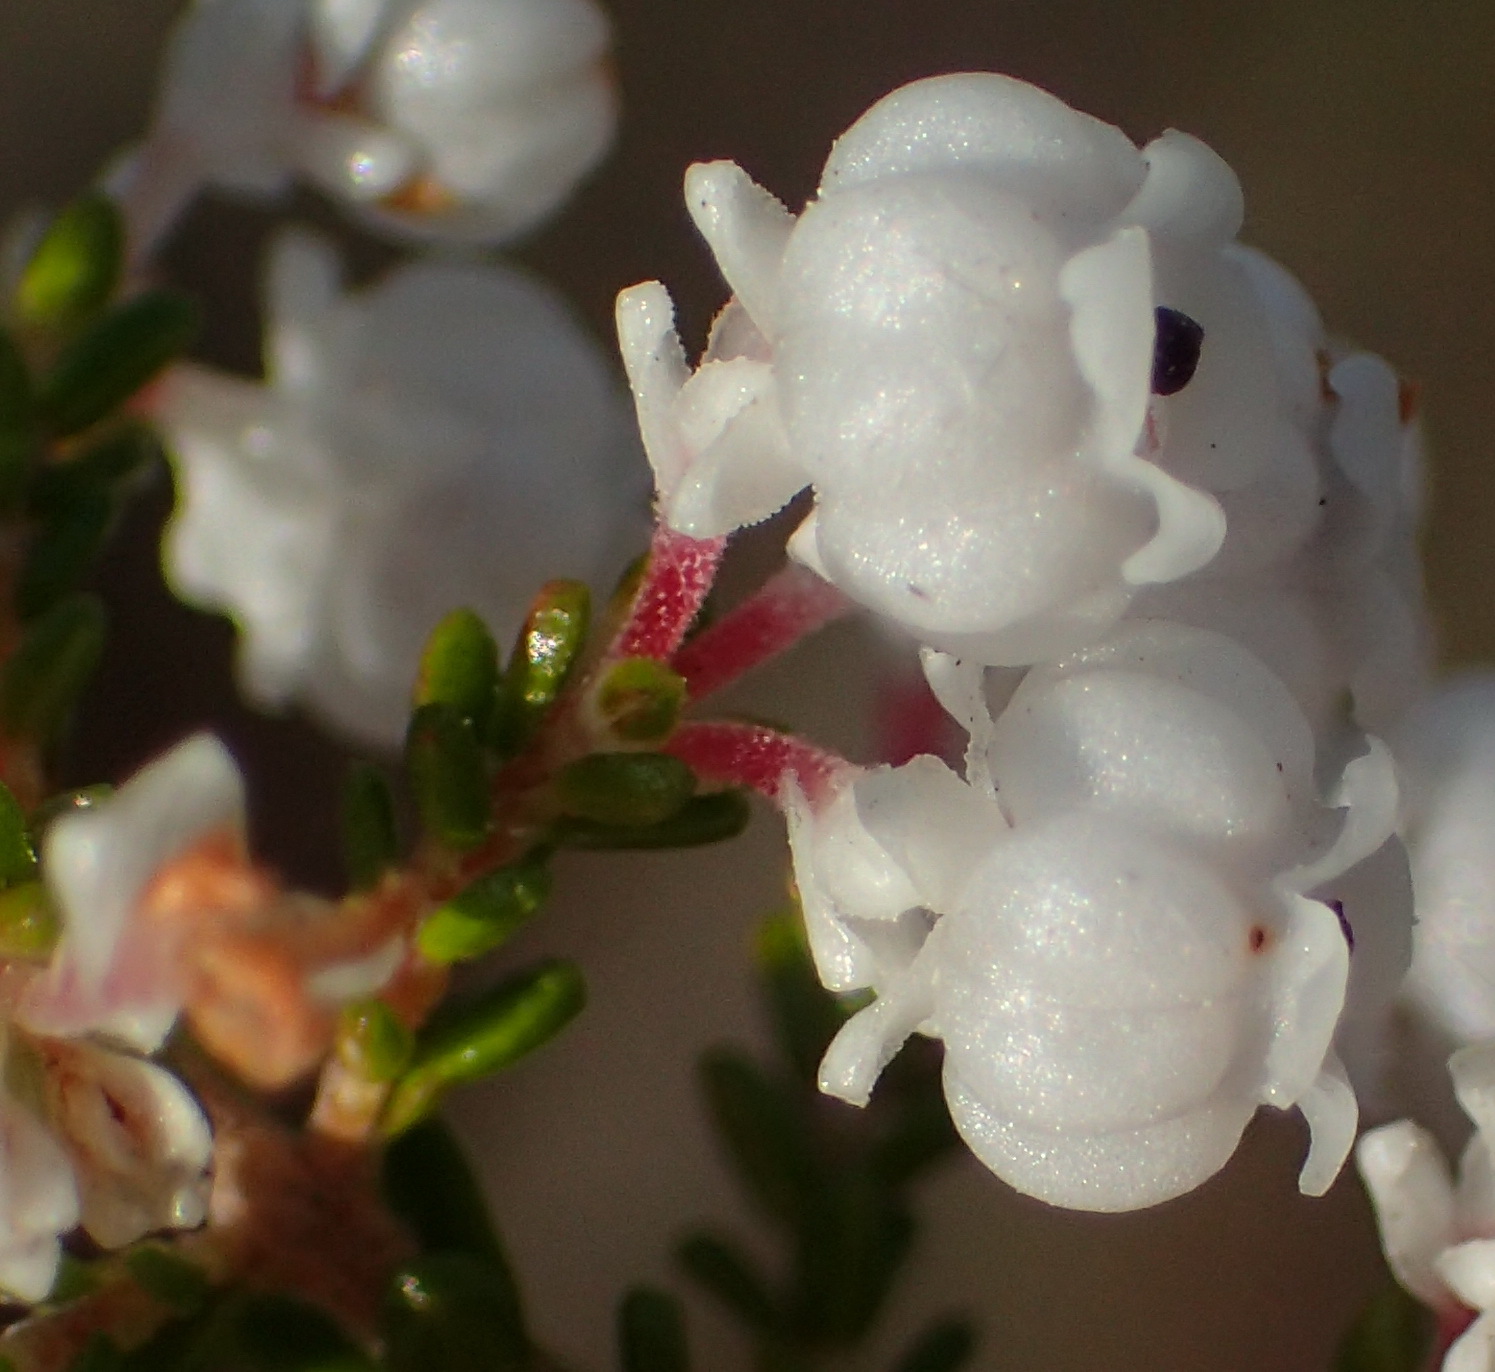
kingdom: Plantae
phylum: Tracheophyta
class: Magnoliopsida
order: Ericales
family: Ericaceae
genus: Erica
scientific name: Erica formosa
